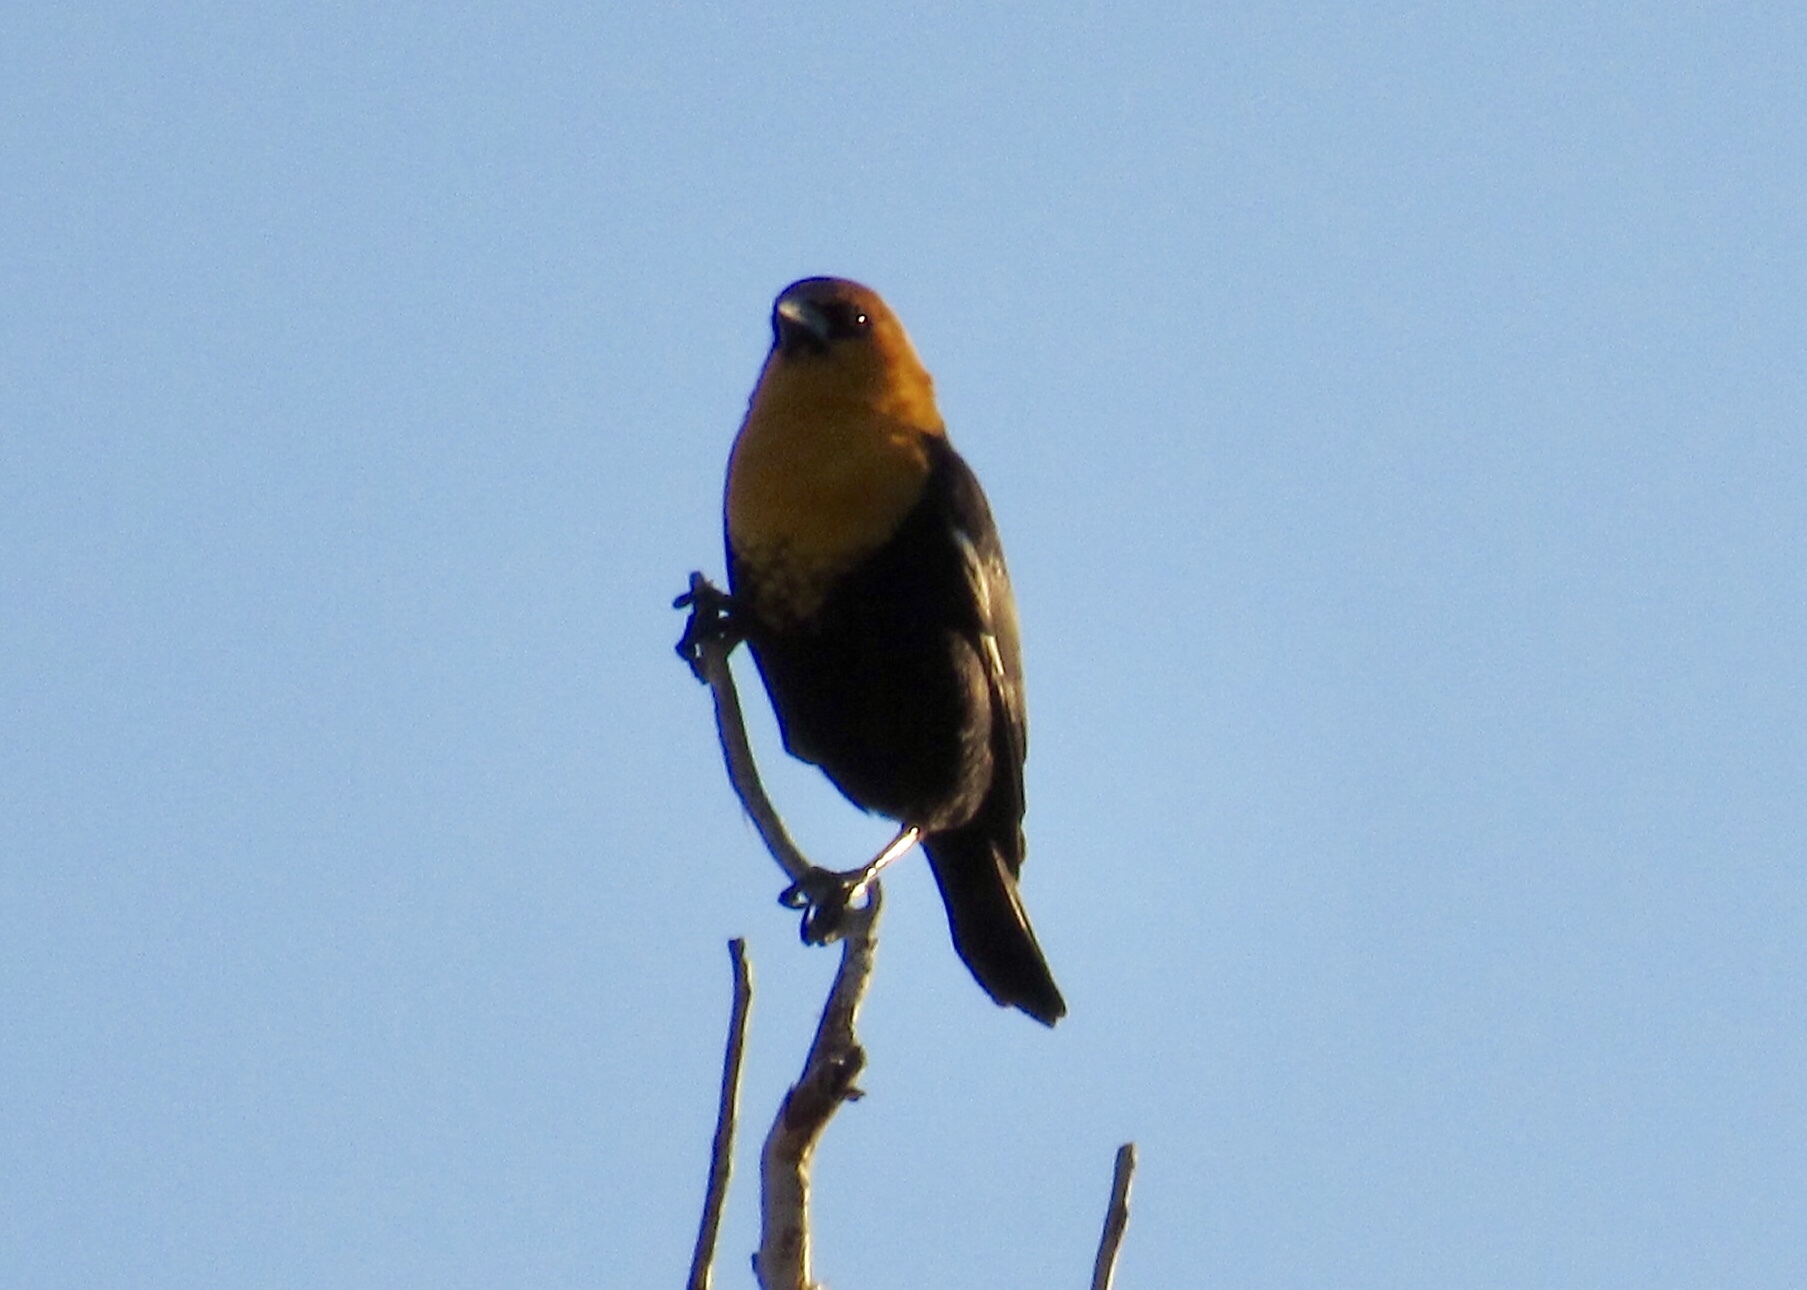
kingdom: Animalia
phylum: Chordata
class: Aves
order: Passeriformes
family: Icteridae
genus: Xanthocephalus
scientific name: Xanthocephalus xanthocephalus
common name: Yellow-headed blackbird
